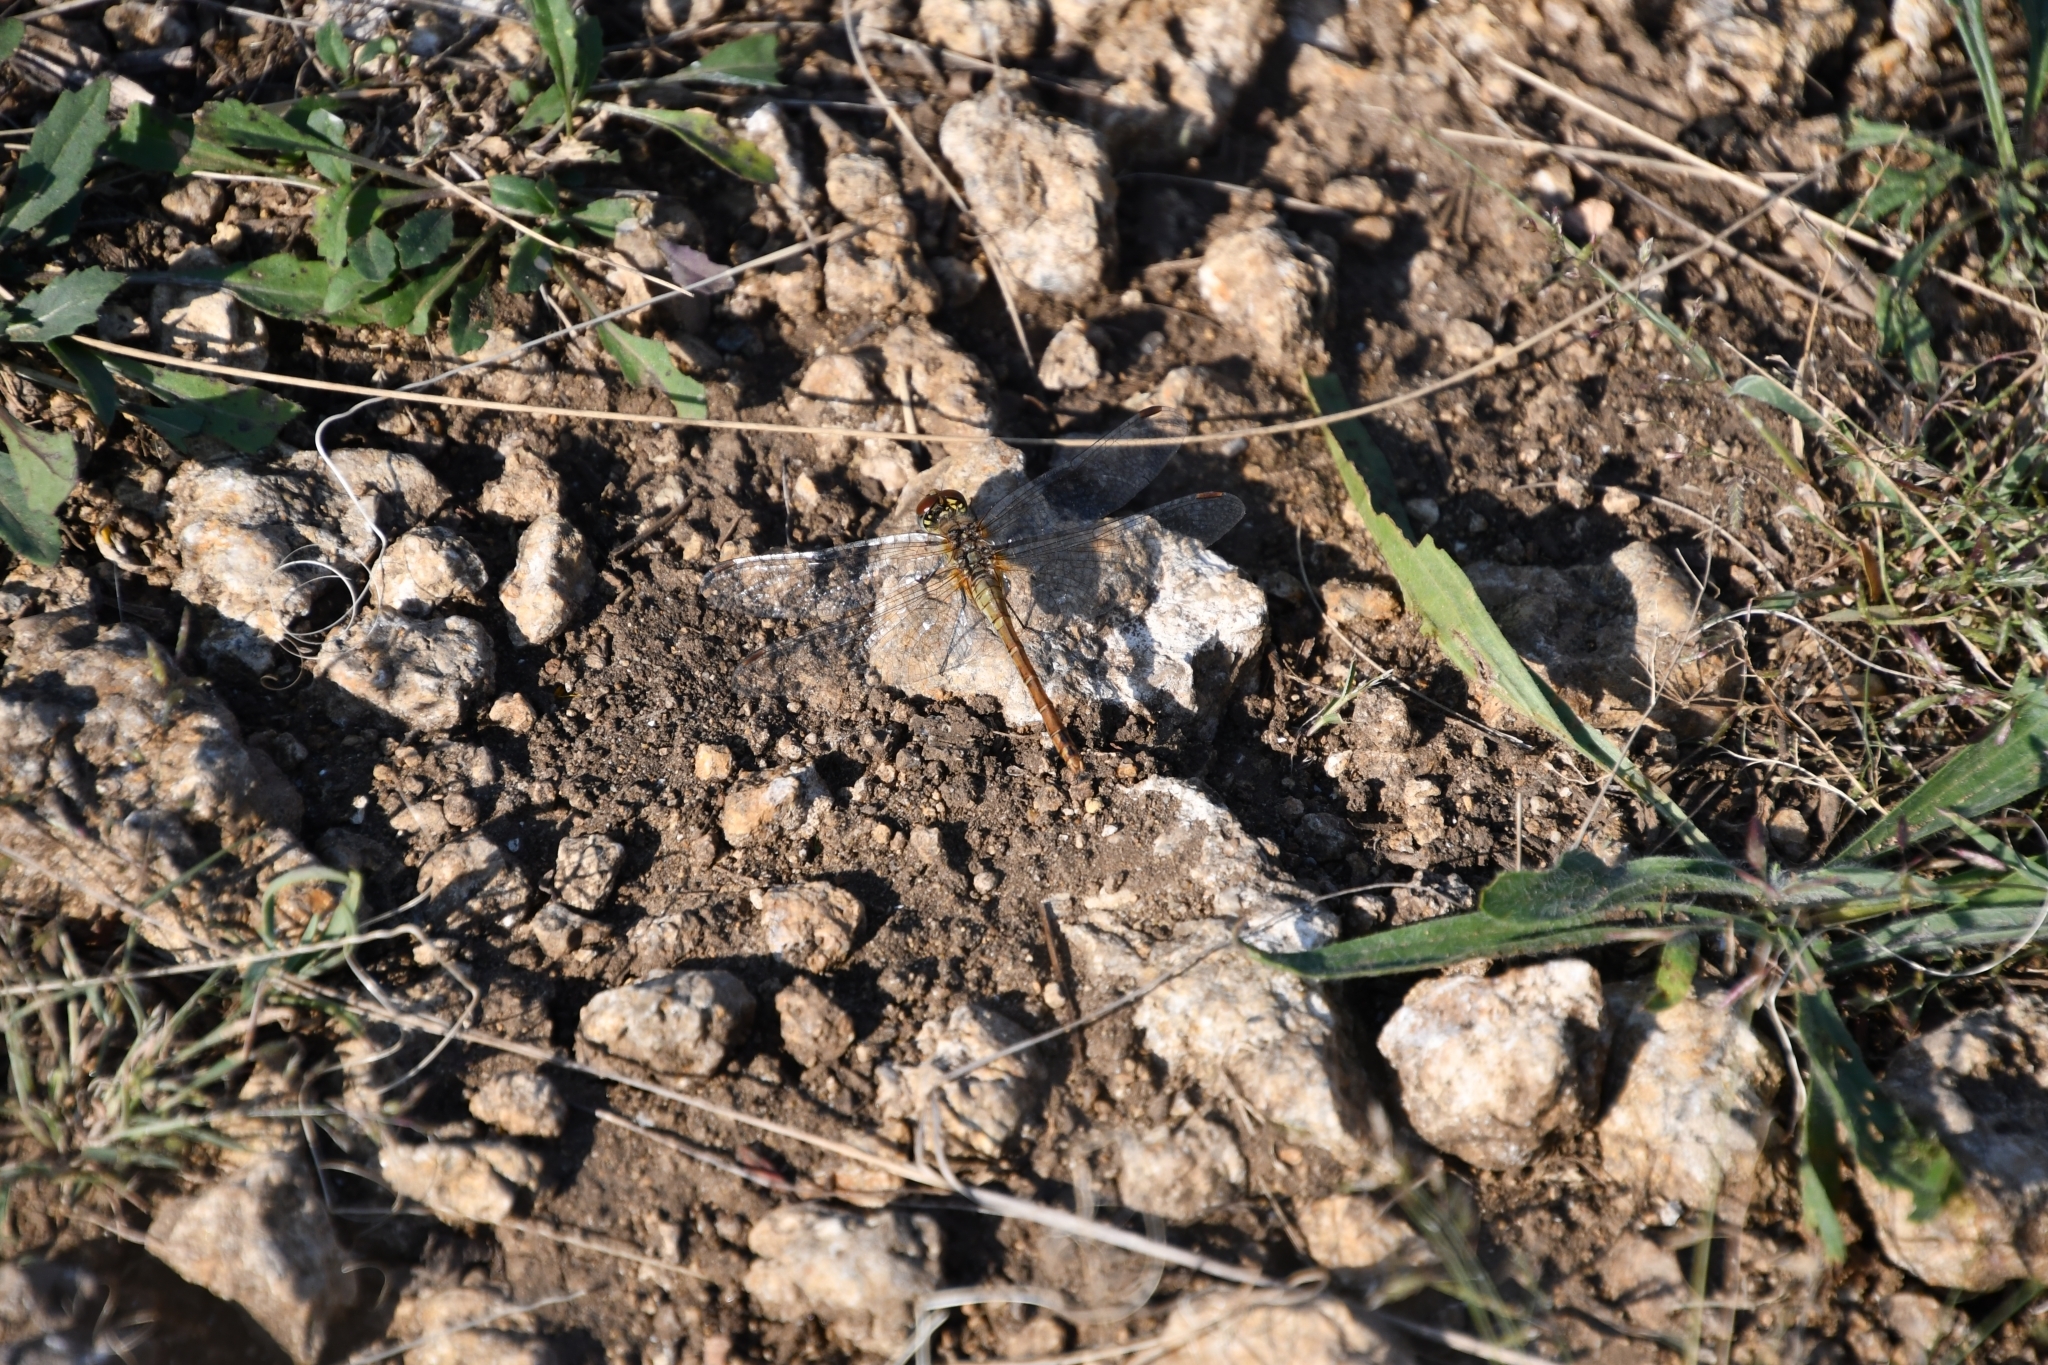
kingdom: Animalia
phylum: Arthropoda
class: Insecta
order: Odonata
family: Libellulidae
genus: Sympetrum
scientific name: Sympetrum sanguineum
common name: Ruddy darter
